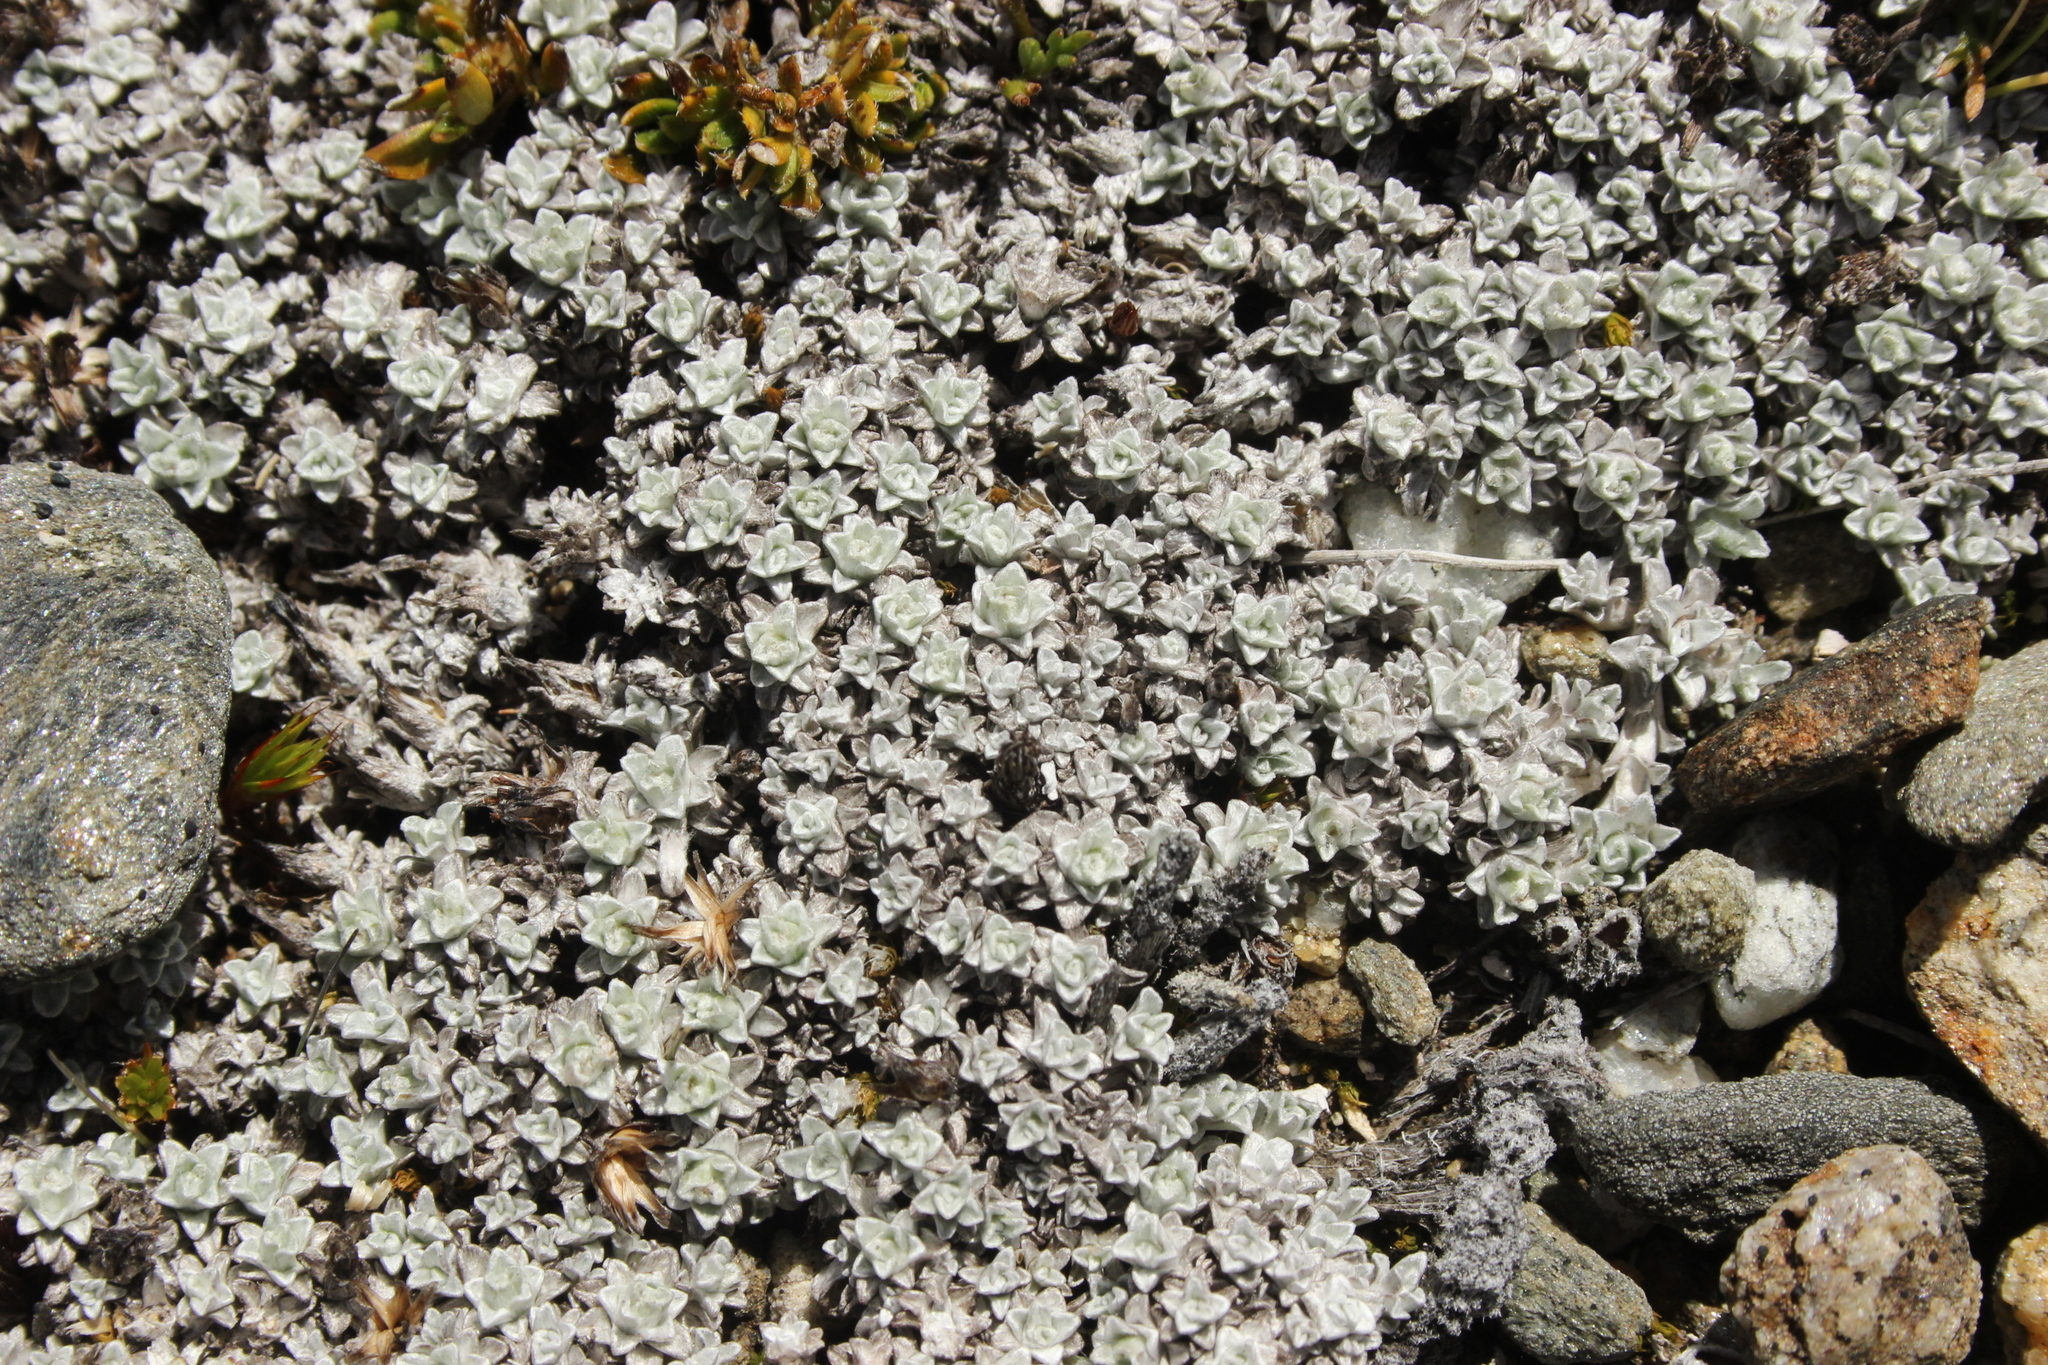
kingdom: Plantae
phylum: Tracheophyta
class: Magnoliopsida
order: Asterales
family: Asteraceae
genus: Raoulia
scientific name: Raoulia apicinigra
